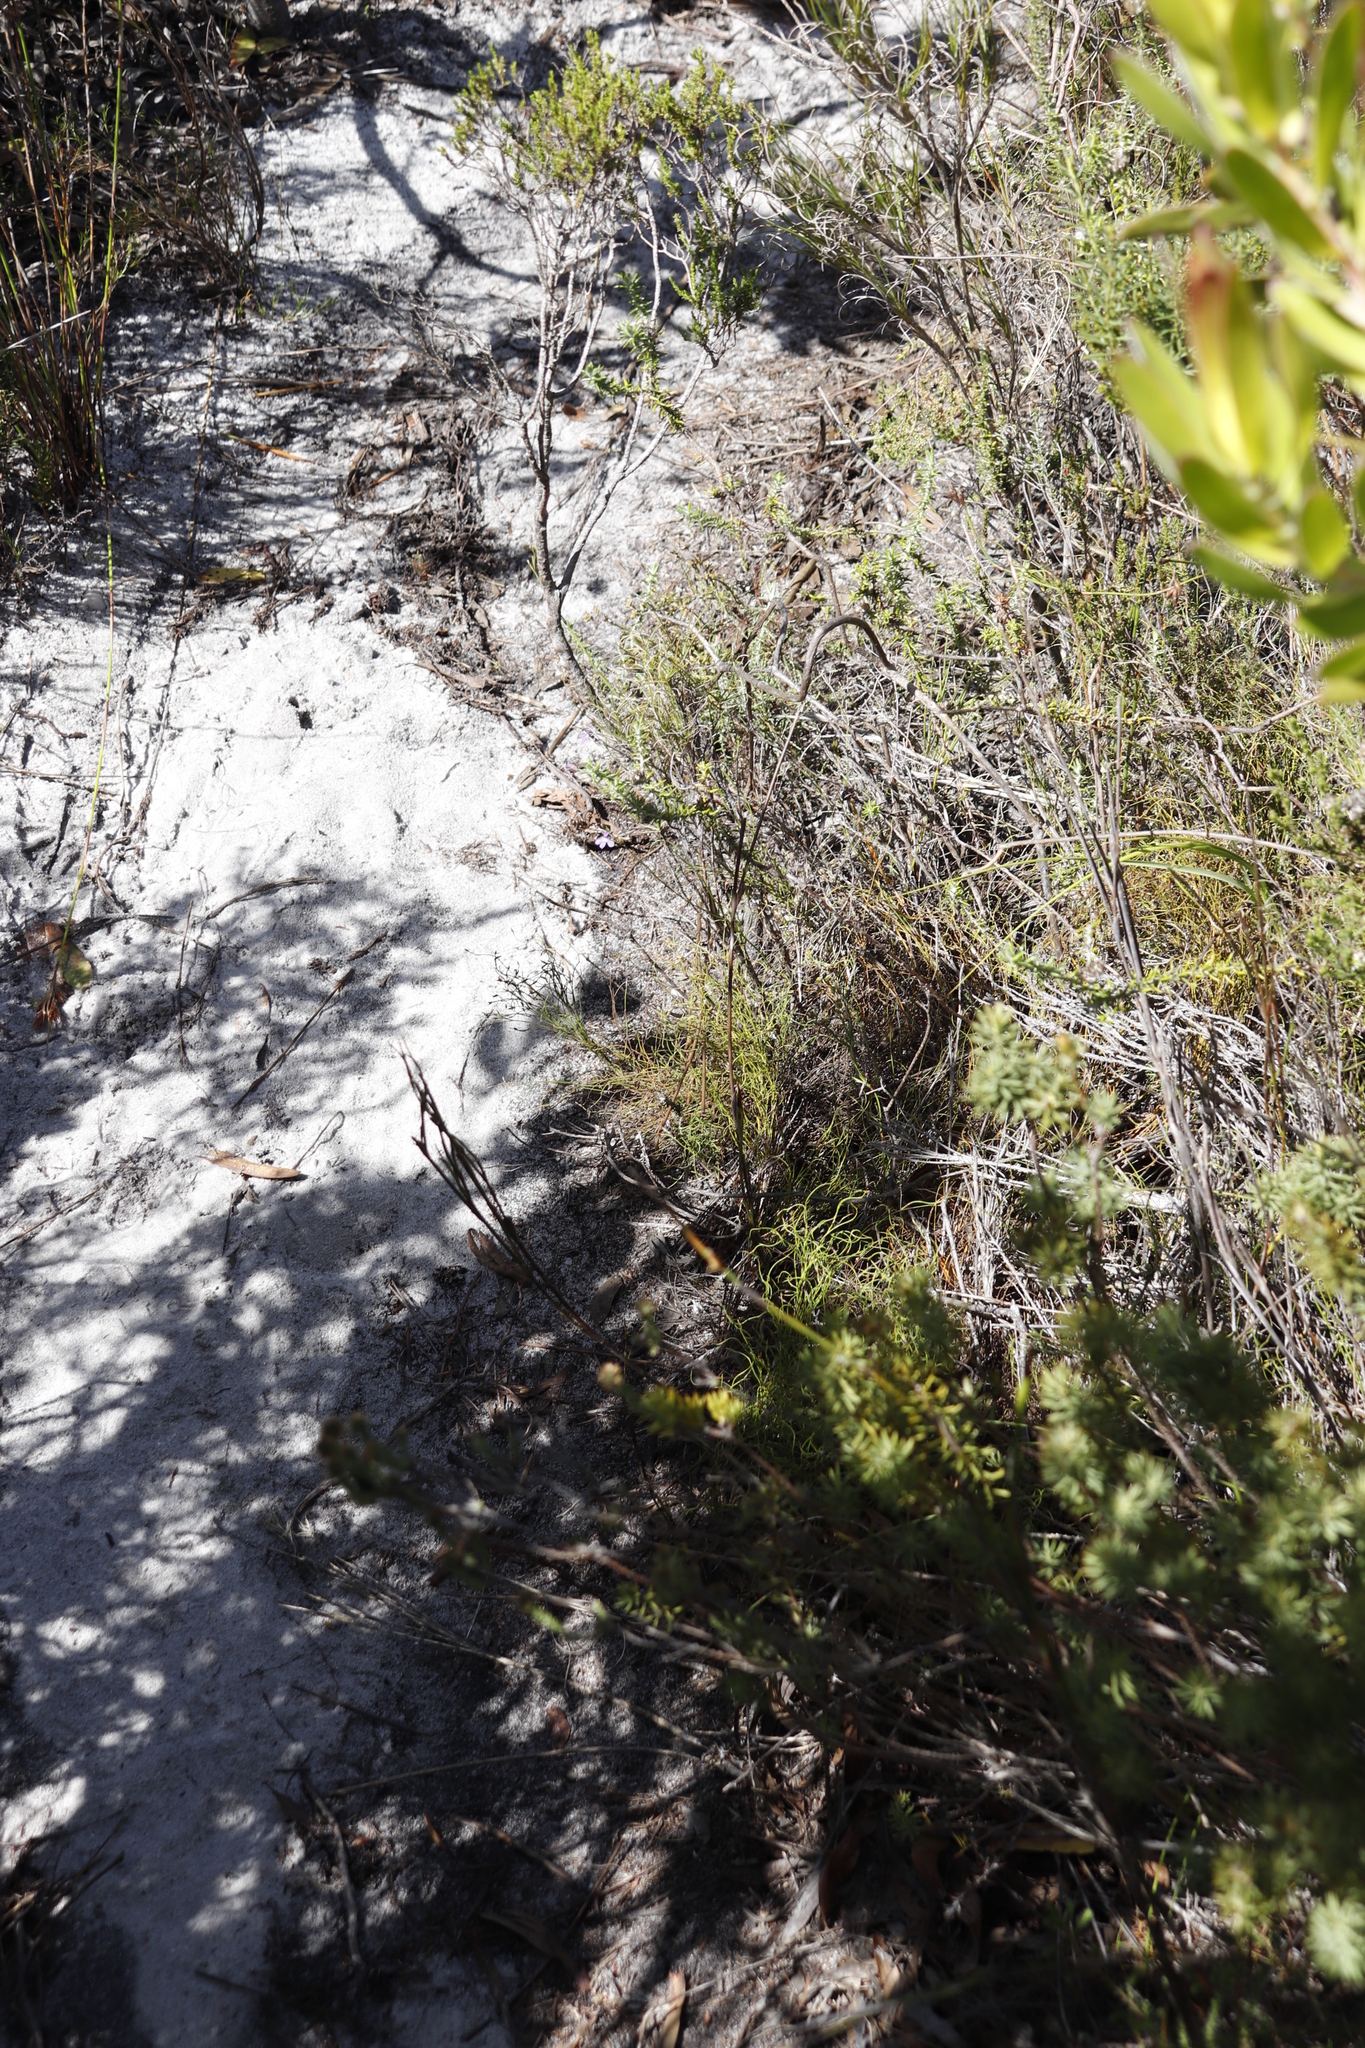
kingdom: Plantae
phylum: Tracheophyta
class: Magnoliopsida
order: Asterales
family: Campanulaceae
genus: Lobelia
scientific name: Lobelia setacea
